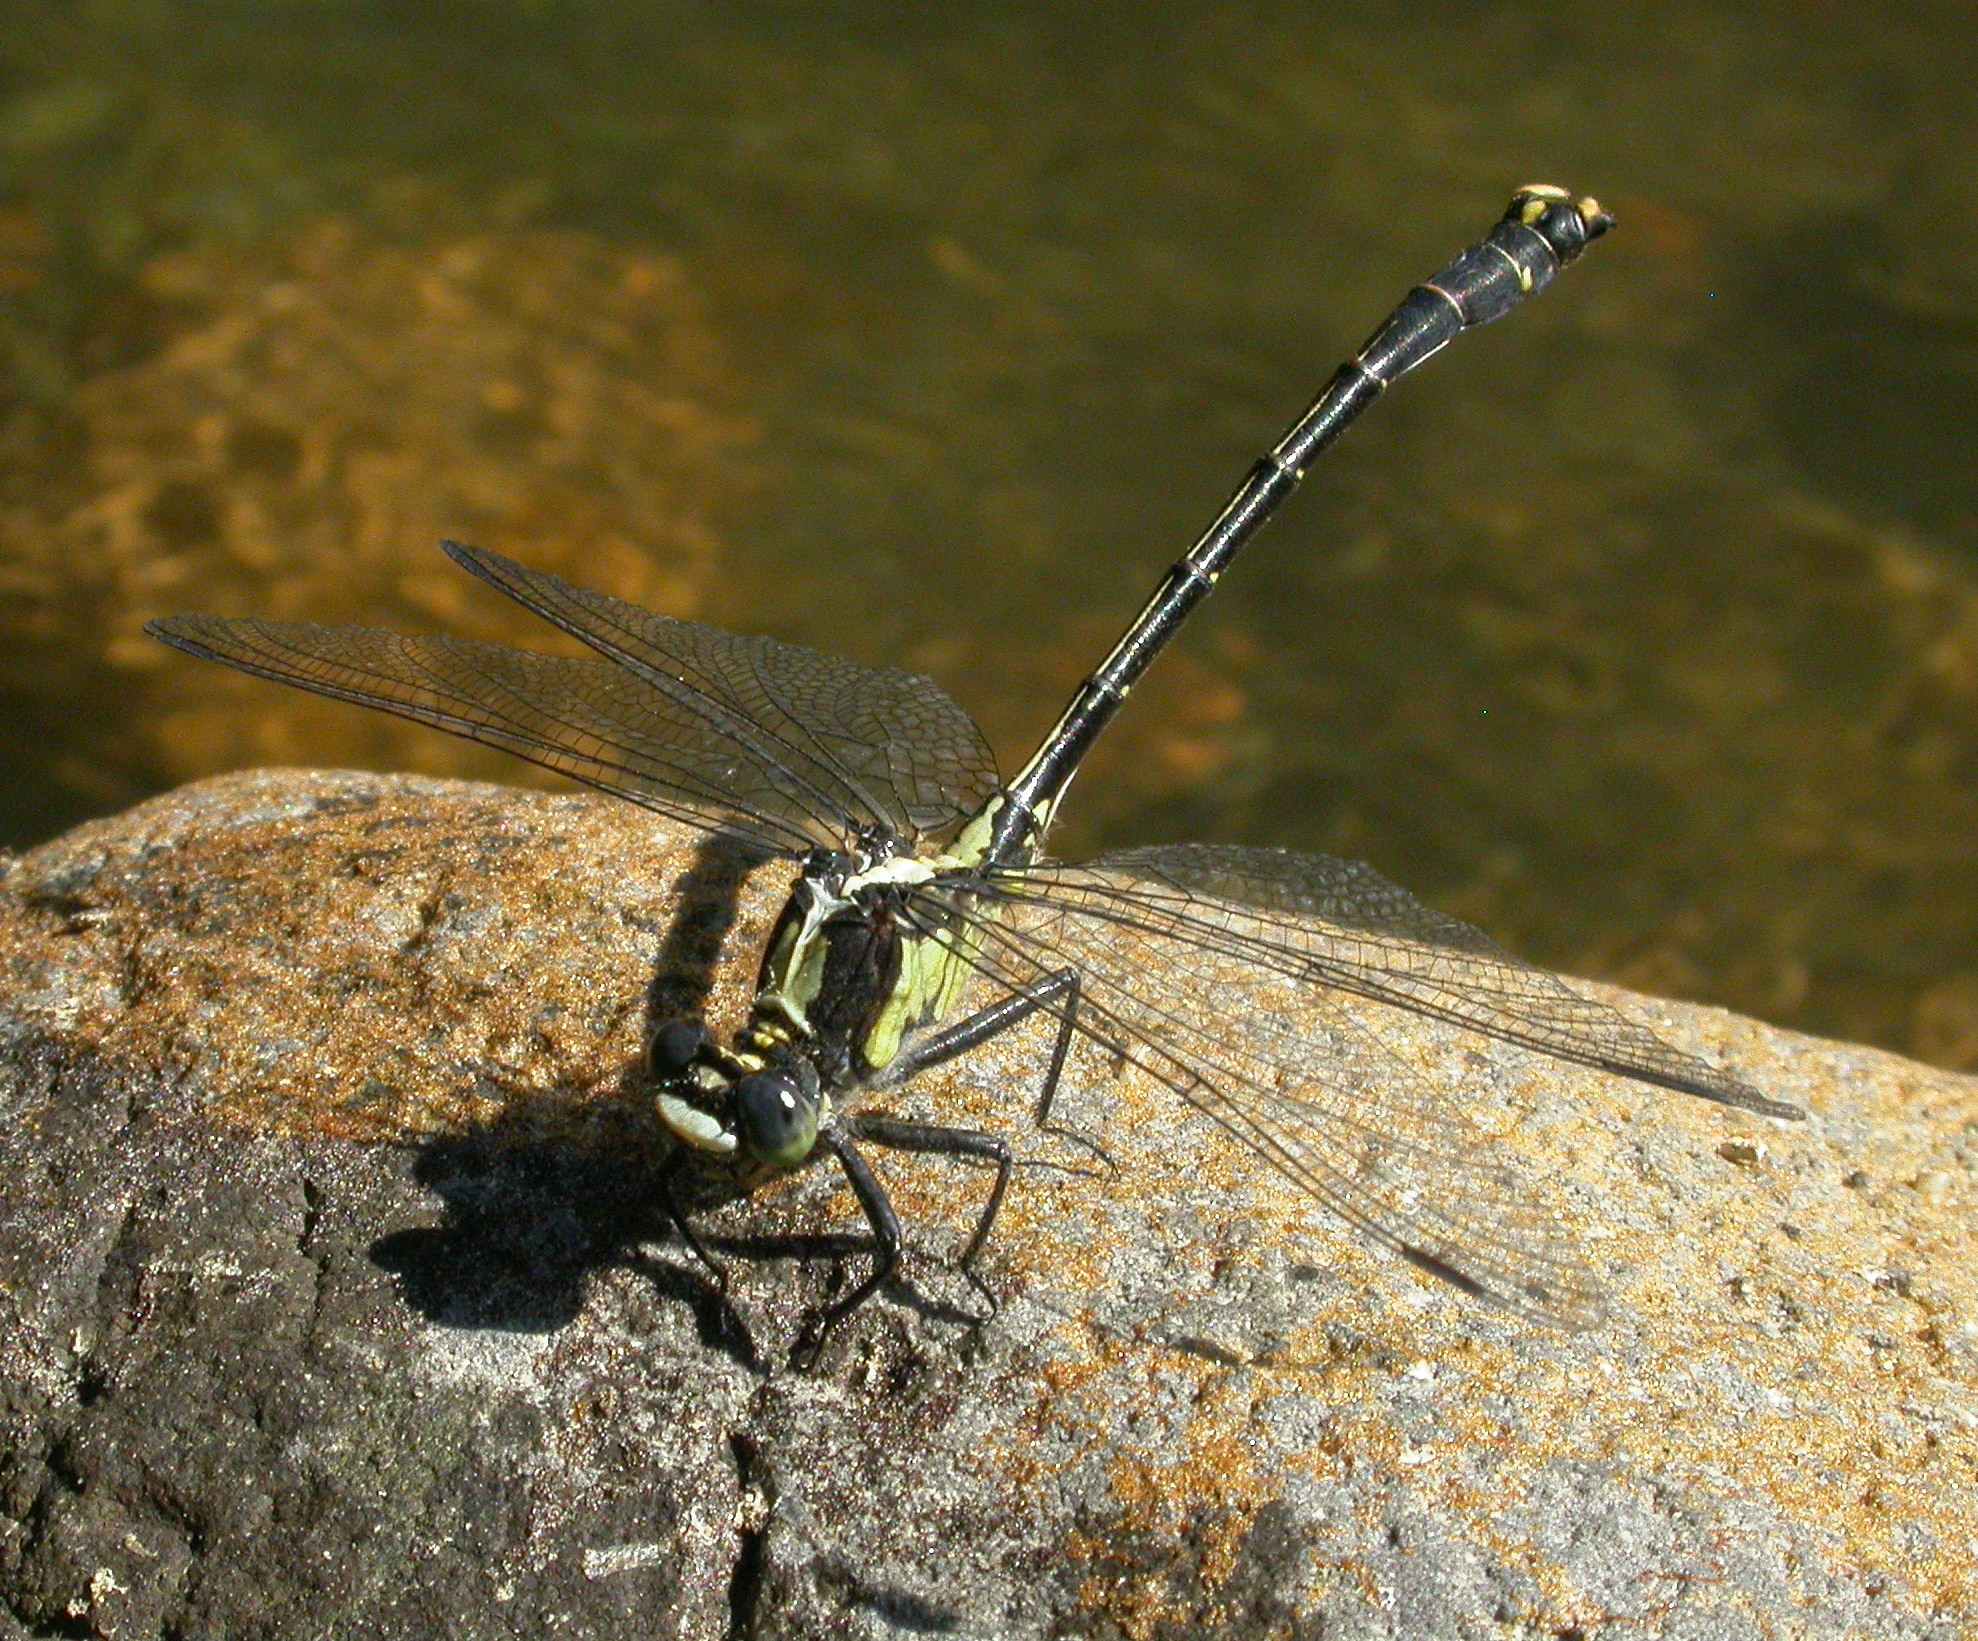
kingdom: Animalia
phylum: Arthropoda
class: Insecta
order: Odonata
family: Gomphidae
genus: Octogomphus
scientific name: Octogomphus specularis
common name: Grappletail
